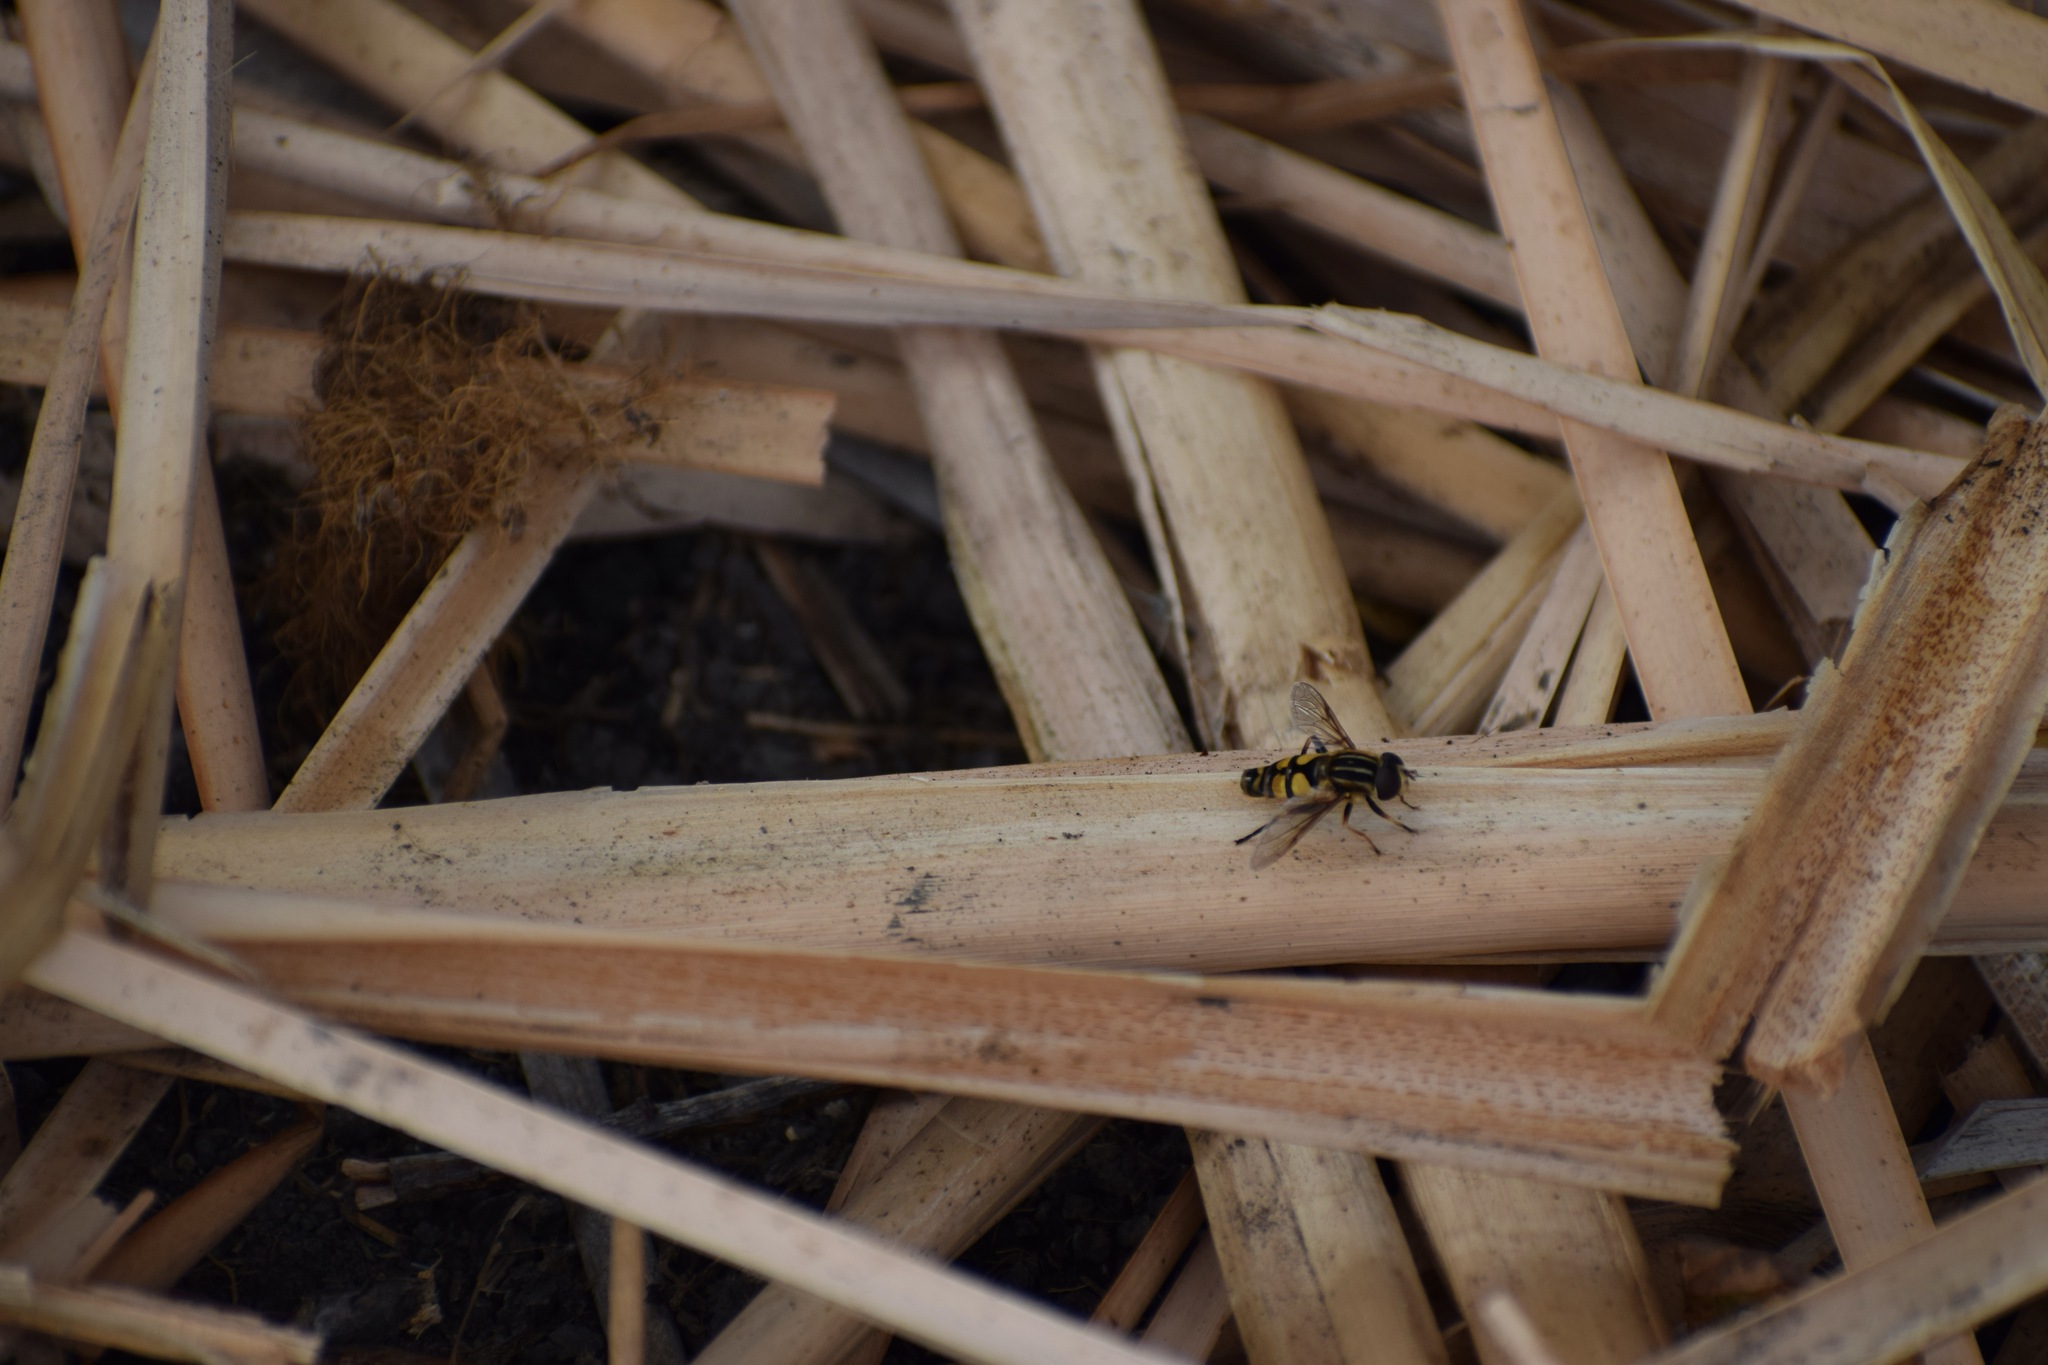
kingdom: Animalia
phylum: Arthropoda
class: Insecta
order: Diptera
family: Syrphidae
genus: Helophilus
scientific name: Helophilus fasciatus
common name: Narrow-headed marsh fly
